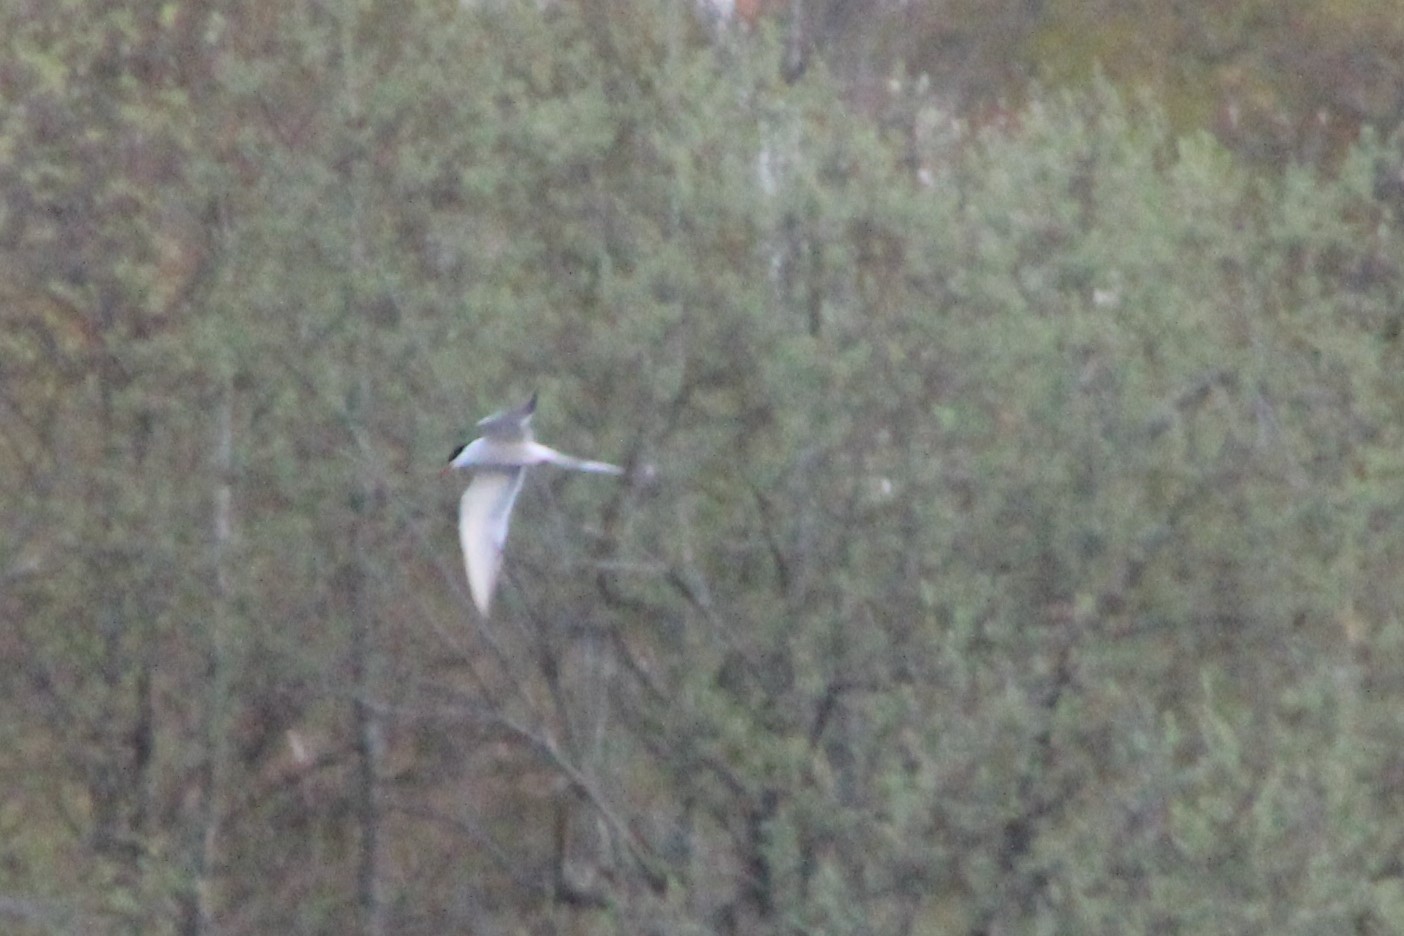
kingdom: Animalia
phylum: Chordata
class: Aves
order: Charadriiformes
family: Laridae
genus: Sterna
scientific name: Sterna hirundo
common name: Common tern
